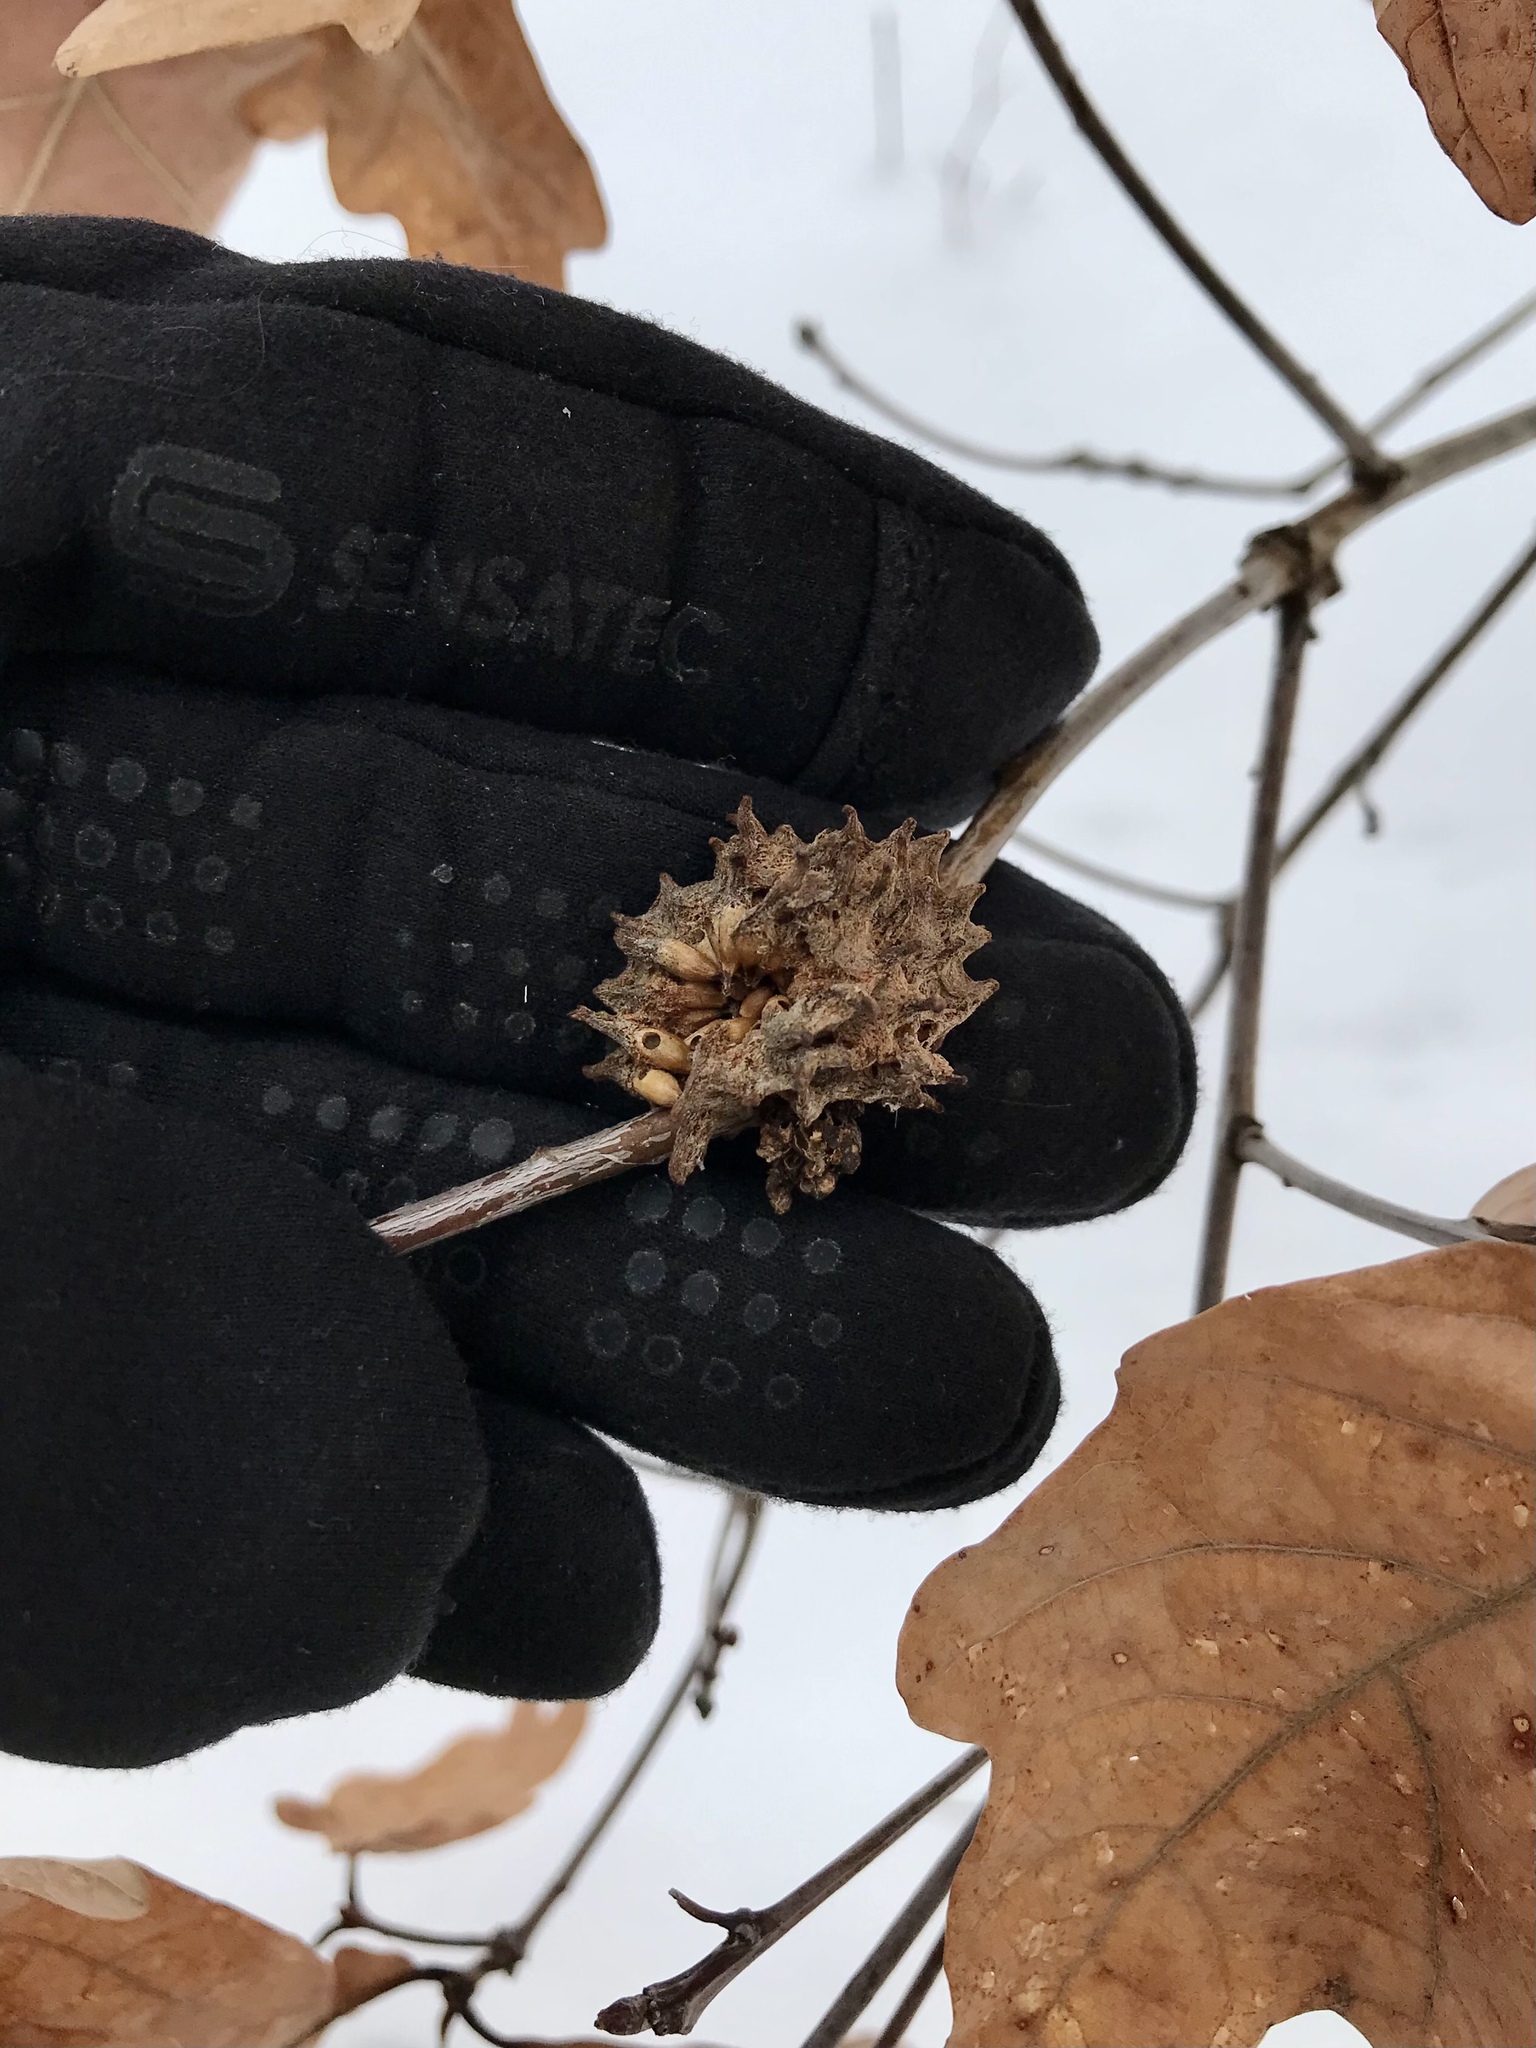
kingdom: Animalia
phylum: Arthropoda
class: Insecta
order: Hymenoptera
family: Cynipidae
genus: Callirhytis
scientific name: Callirhytis
